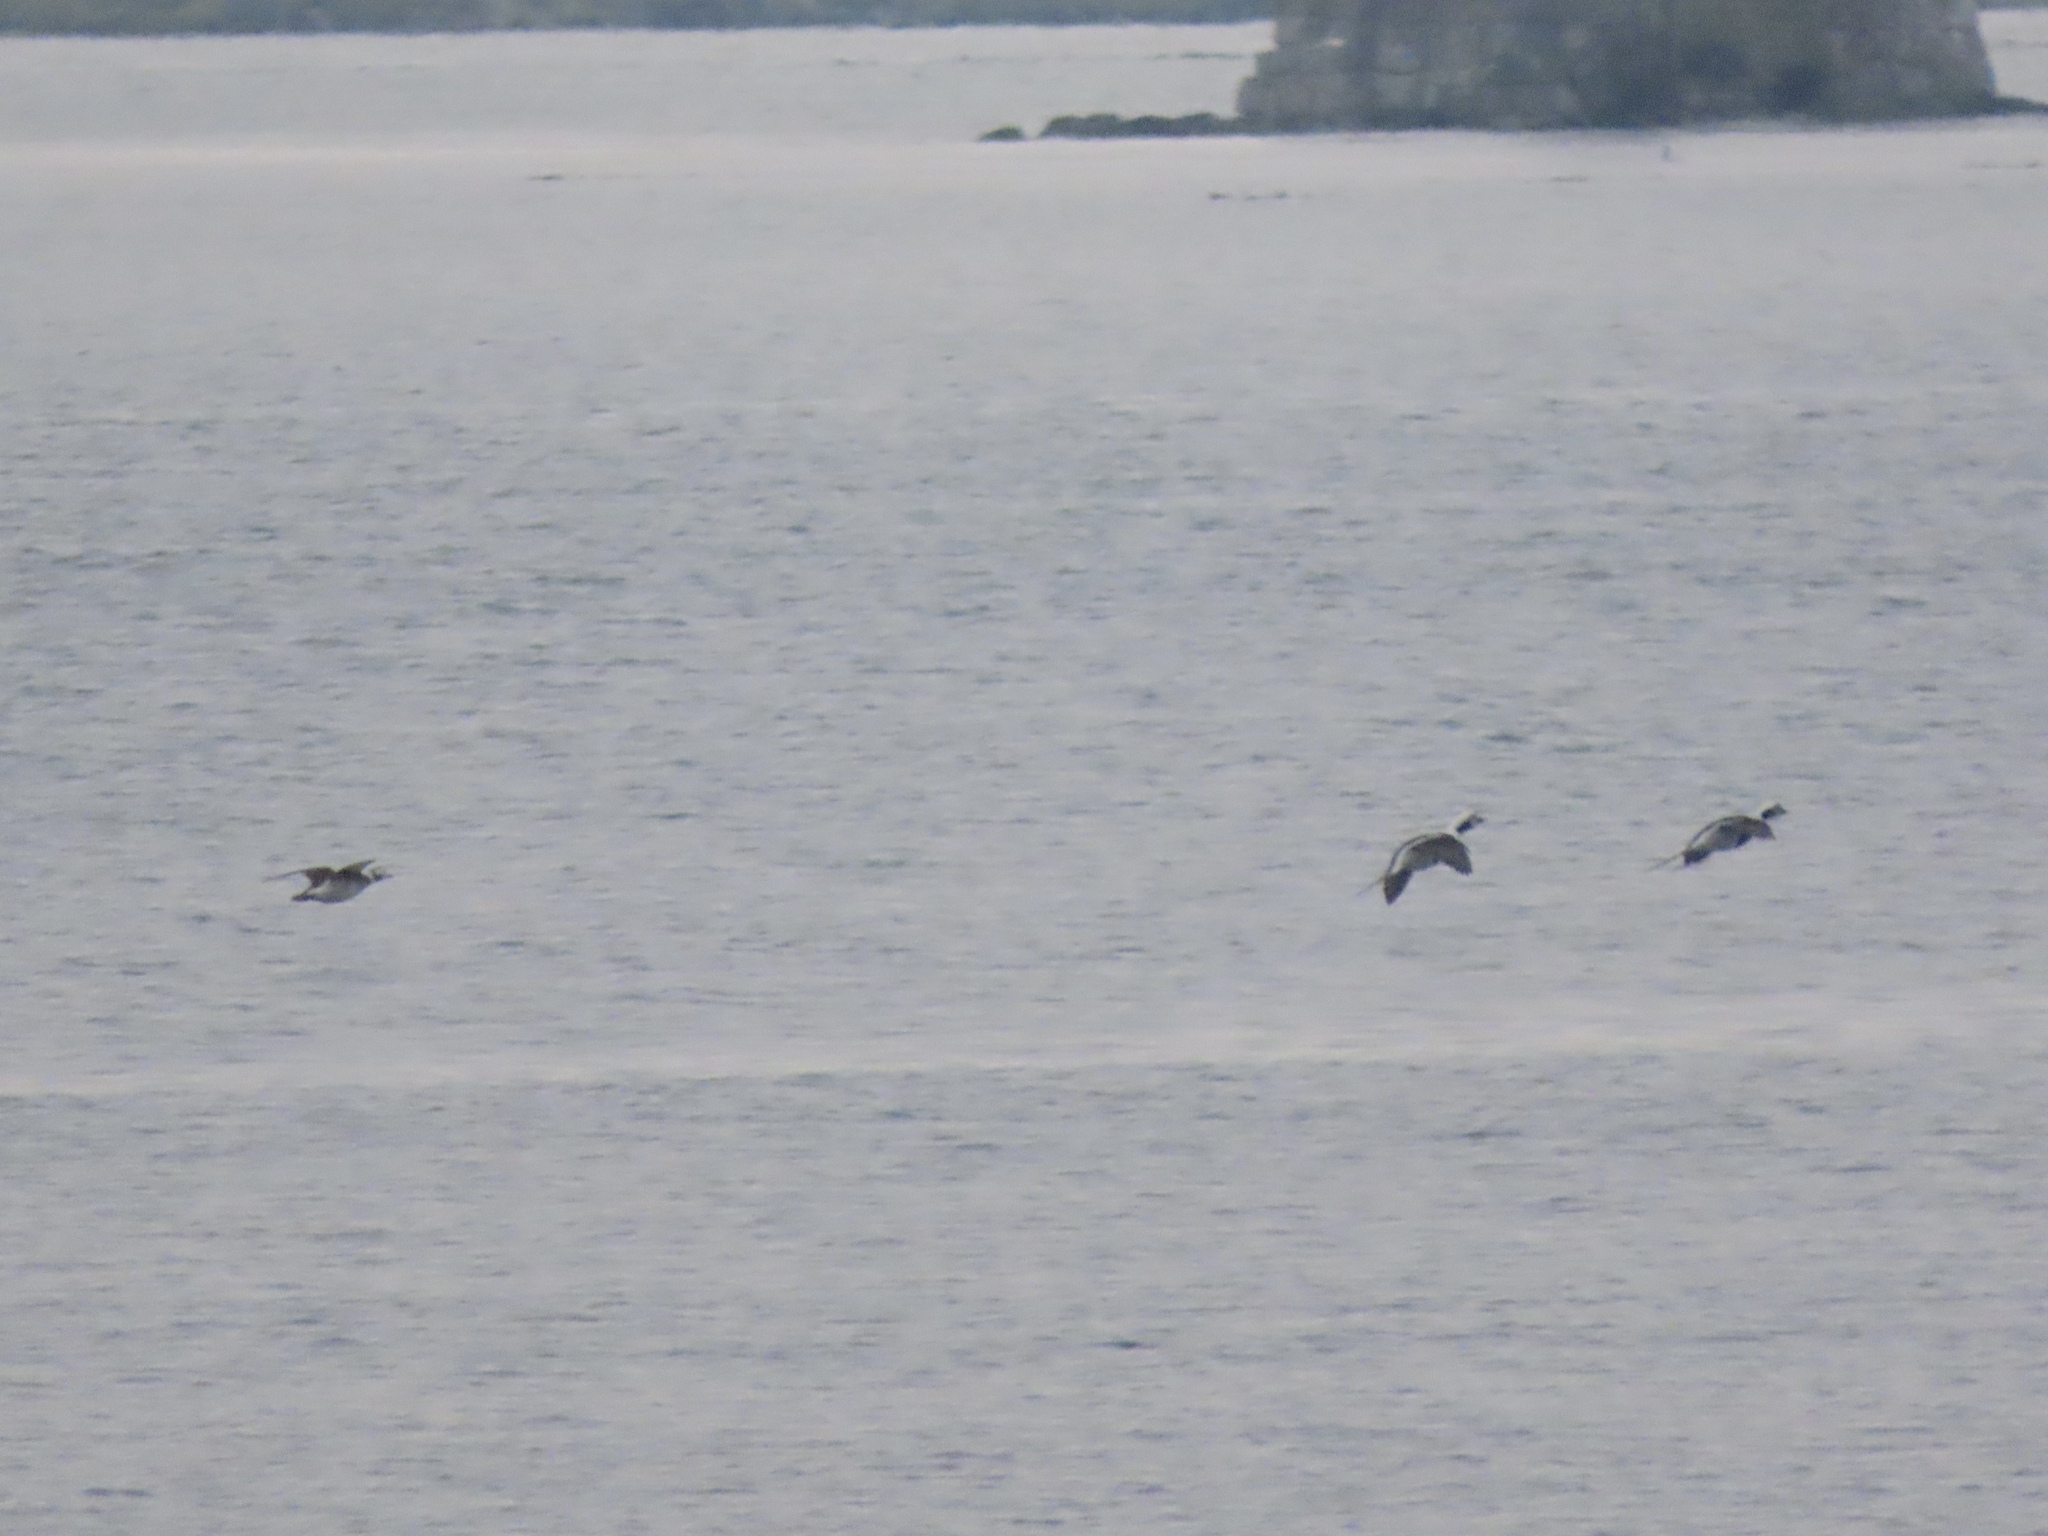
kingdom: Animalia
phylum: Chordata
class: Aves
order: Anseriformes
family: Anatidae
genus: Clangula
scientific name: Clangula hyemalis
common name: Long-tailed duck
